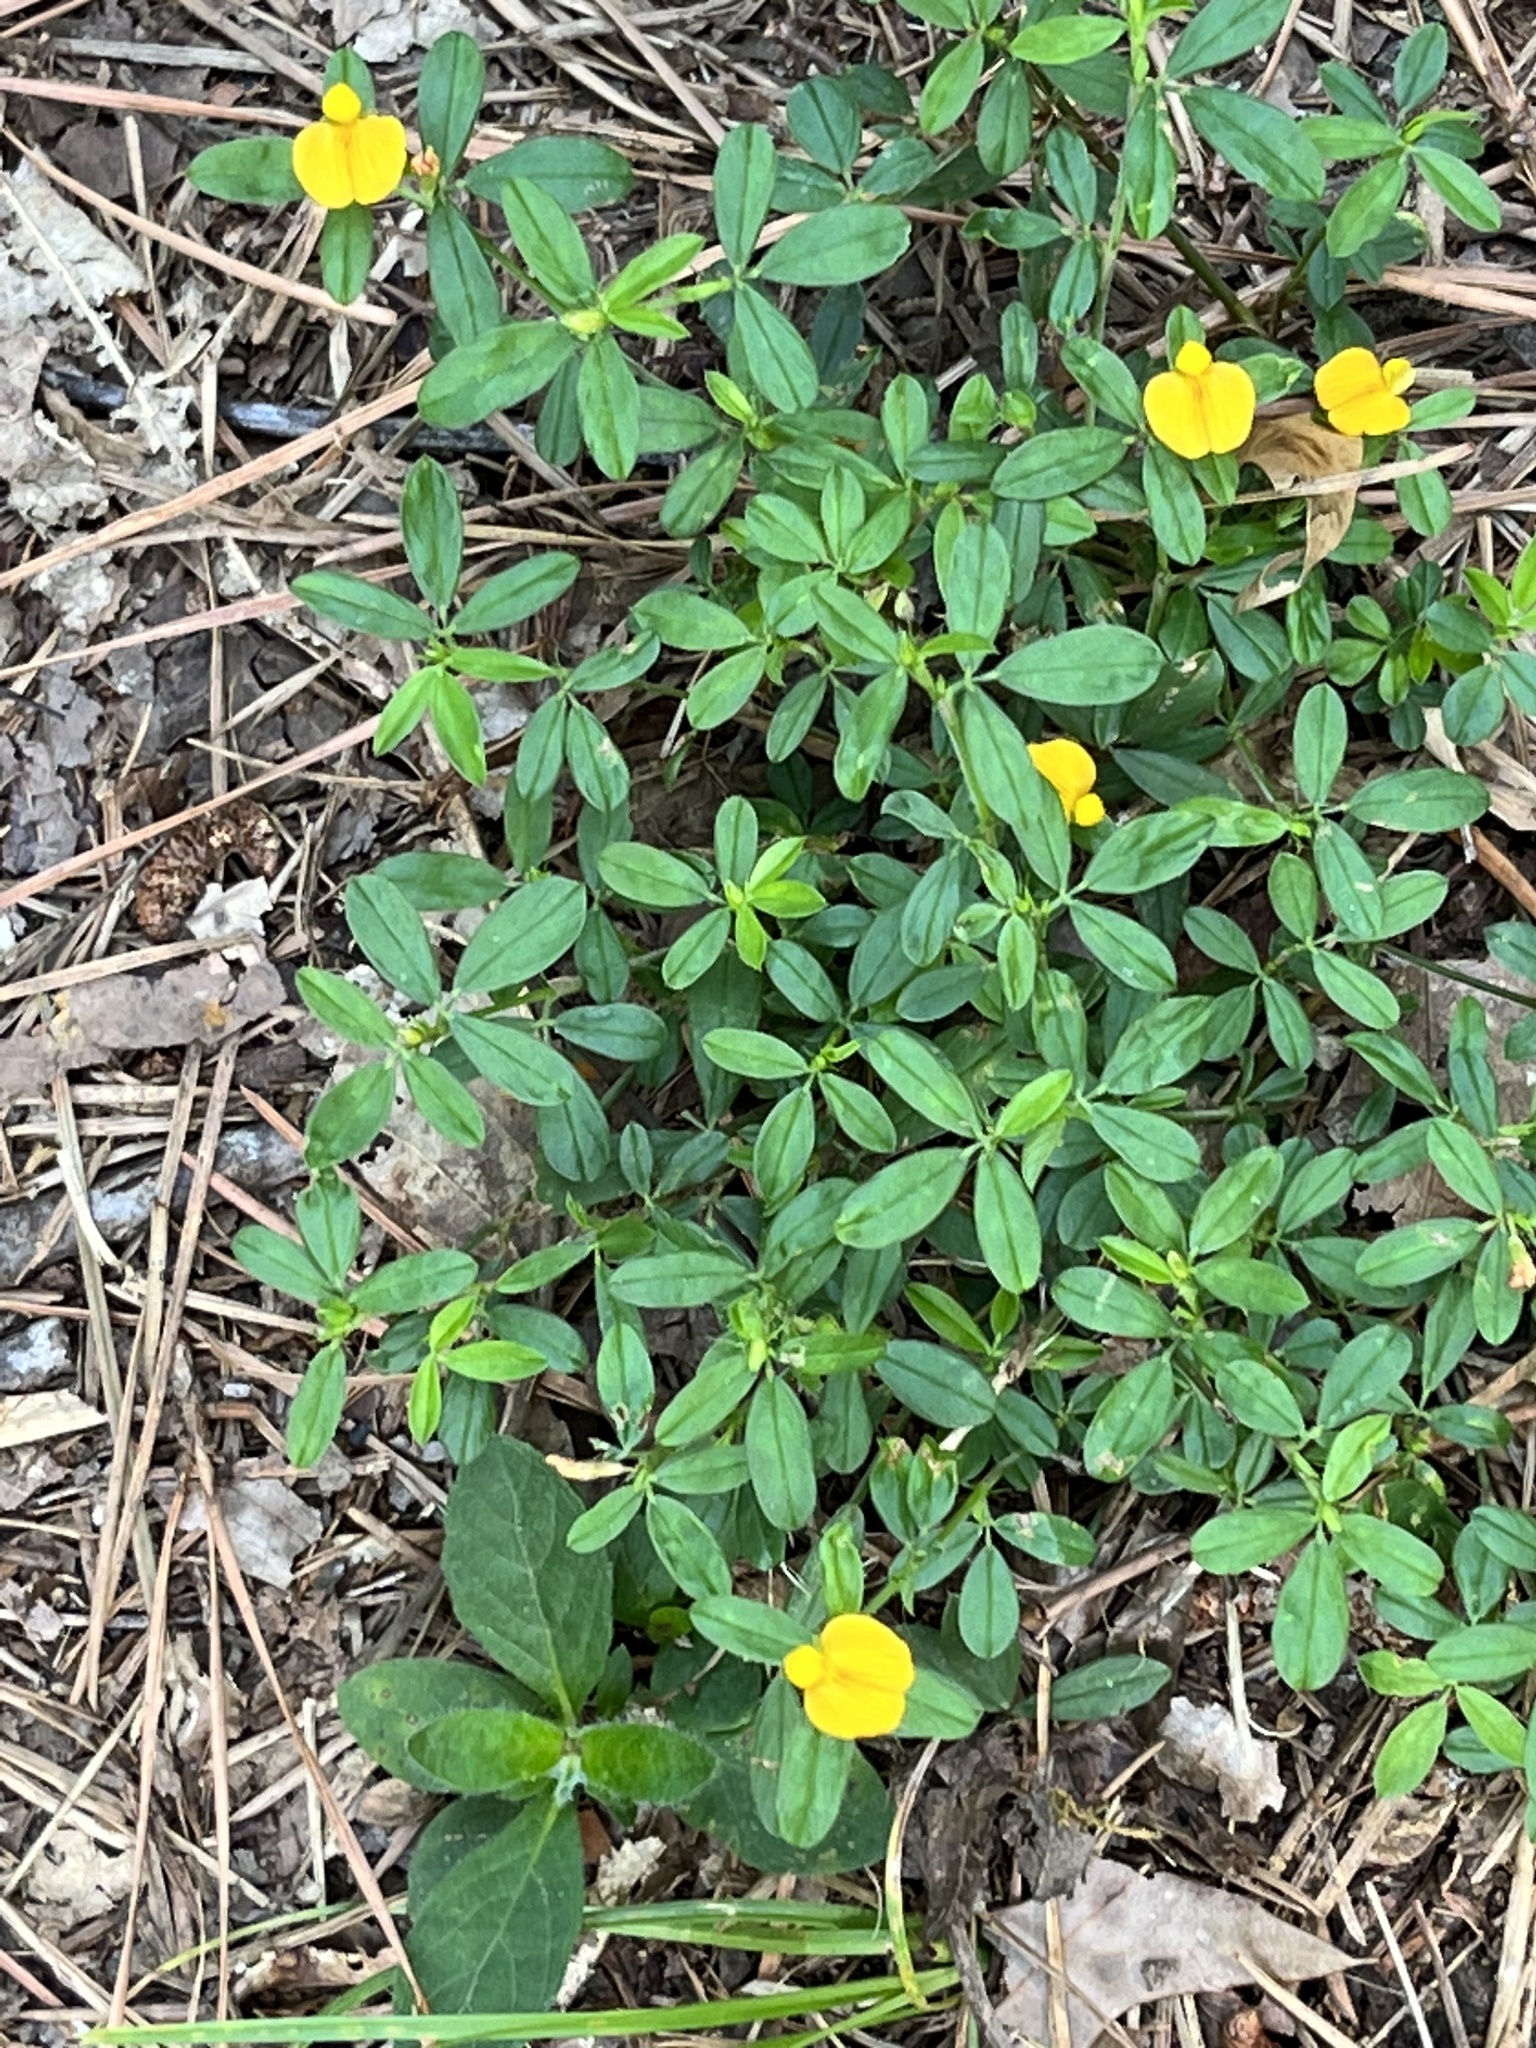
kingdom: Plantae
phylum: Tracheophyta
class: Magnoliopsida
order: Fabales
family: Fabaceae
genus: Stylosanthes
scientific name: Stylosanthes biflora
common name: Two-flower pencil-flower
